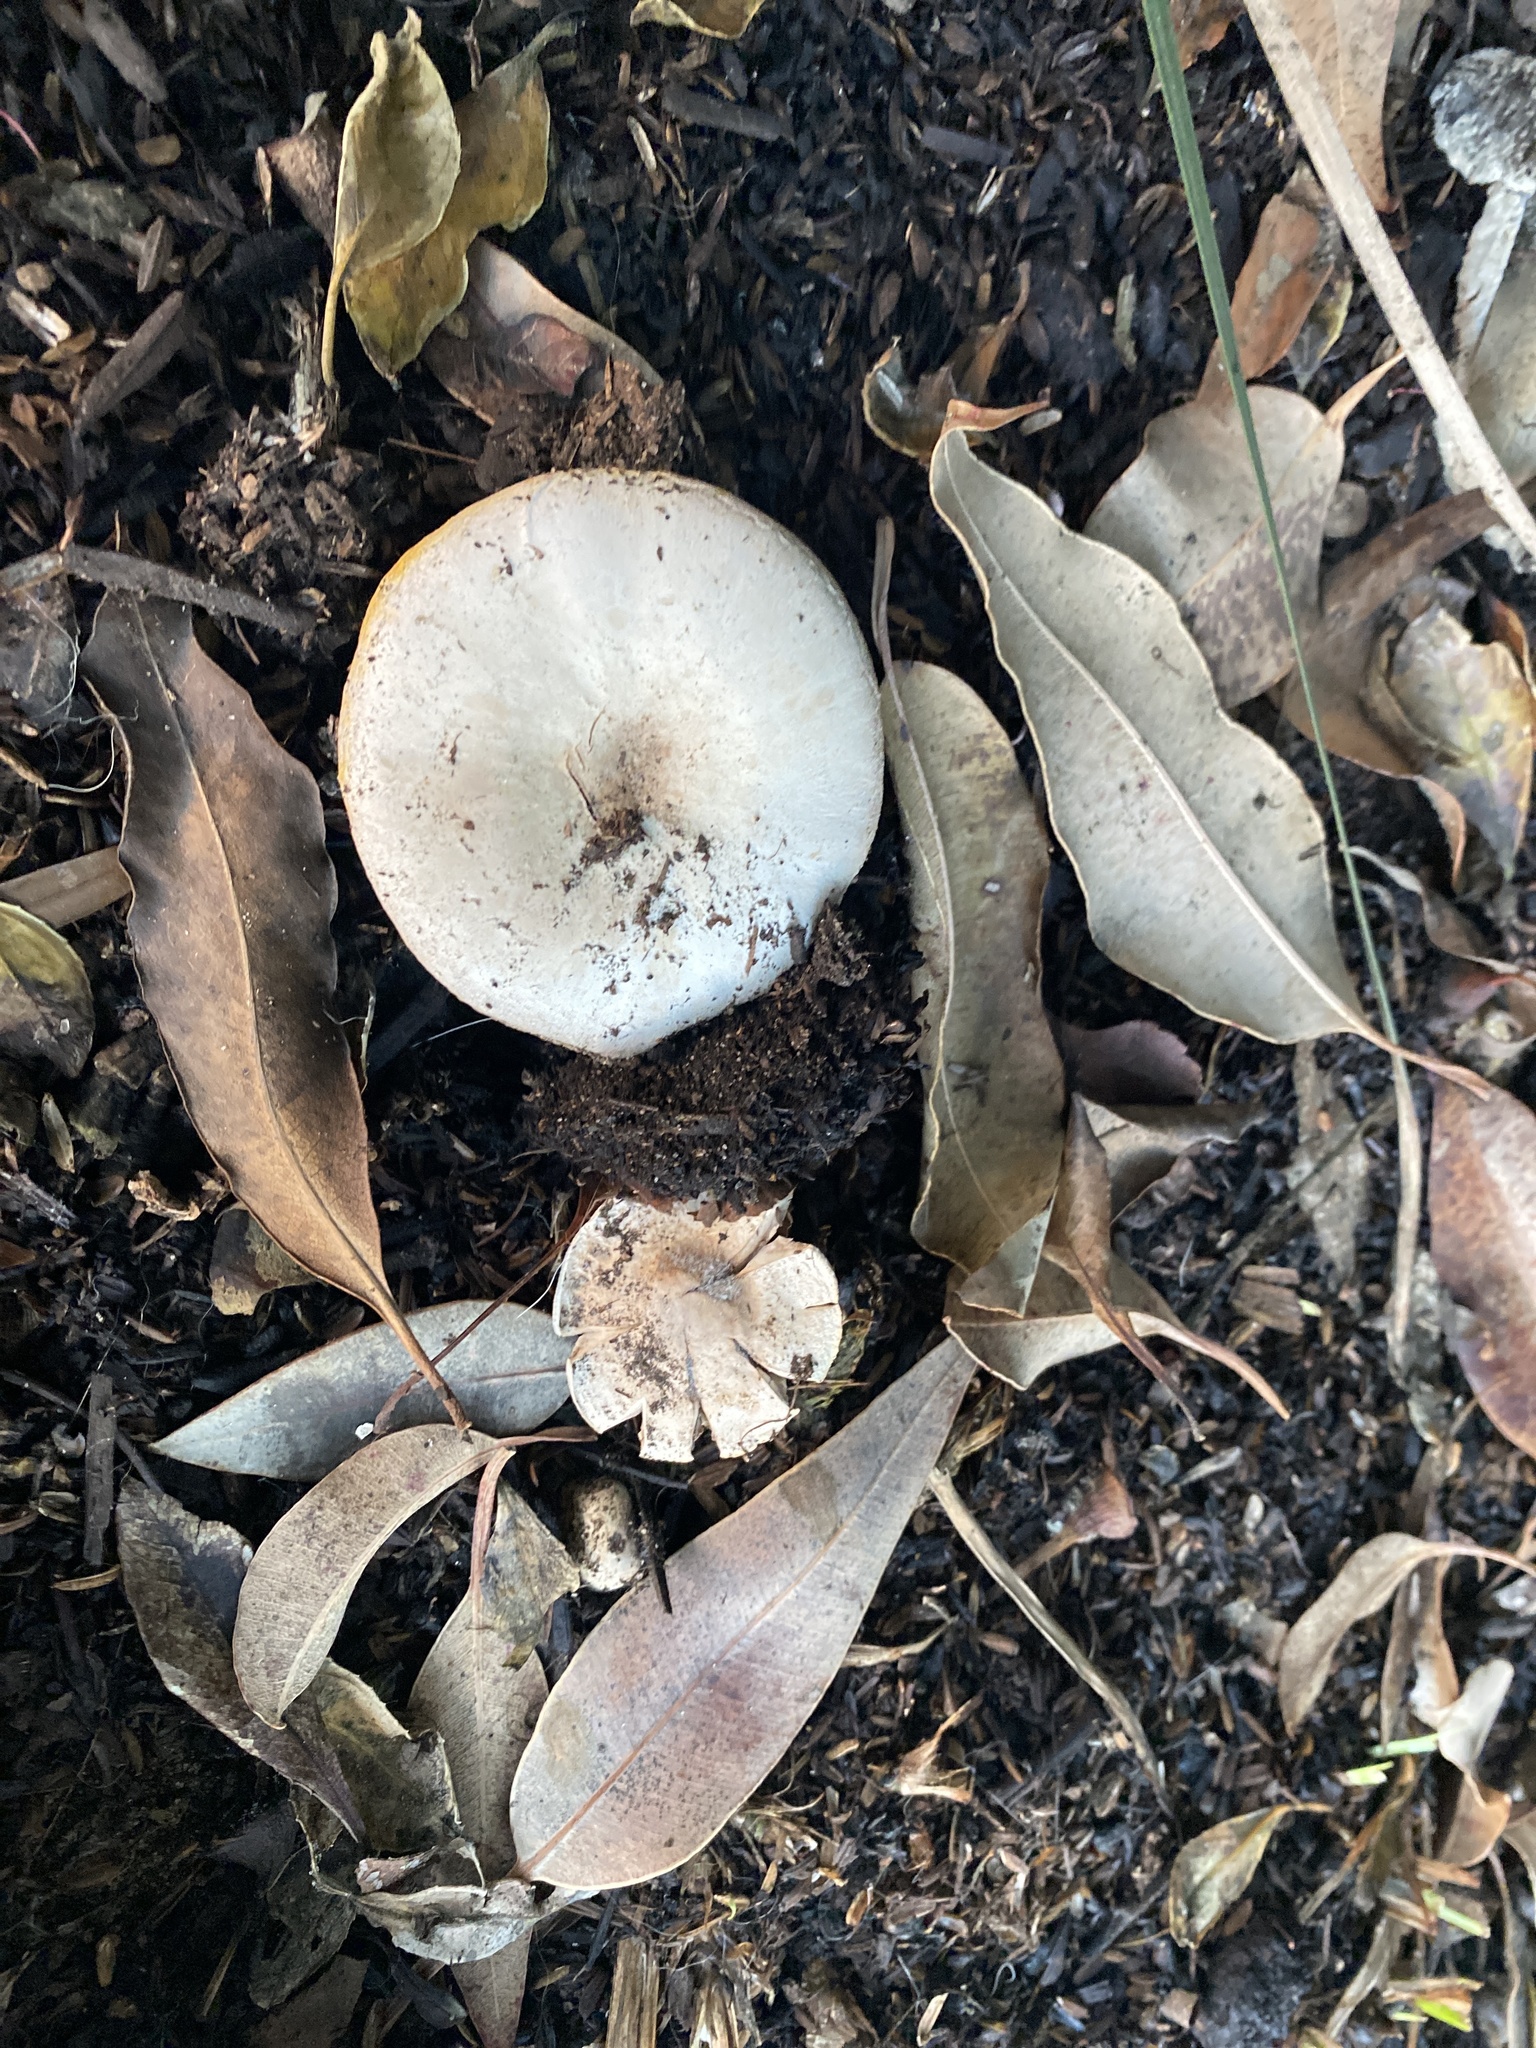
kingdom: Fungi
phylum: Basidiomycota
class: Agaricomycetes
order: Agaricales
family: Agaricaceae
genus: Agaricus
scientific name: Agaricus xanthodermus
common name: Yellow stainer
